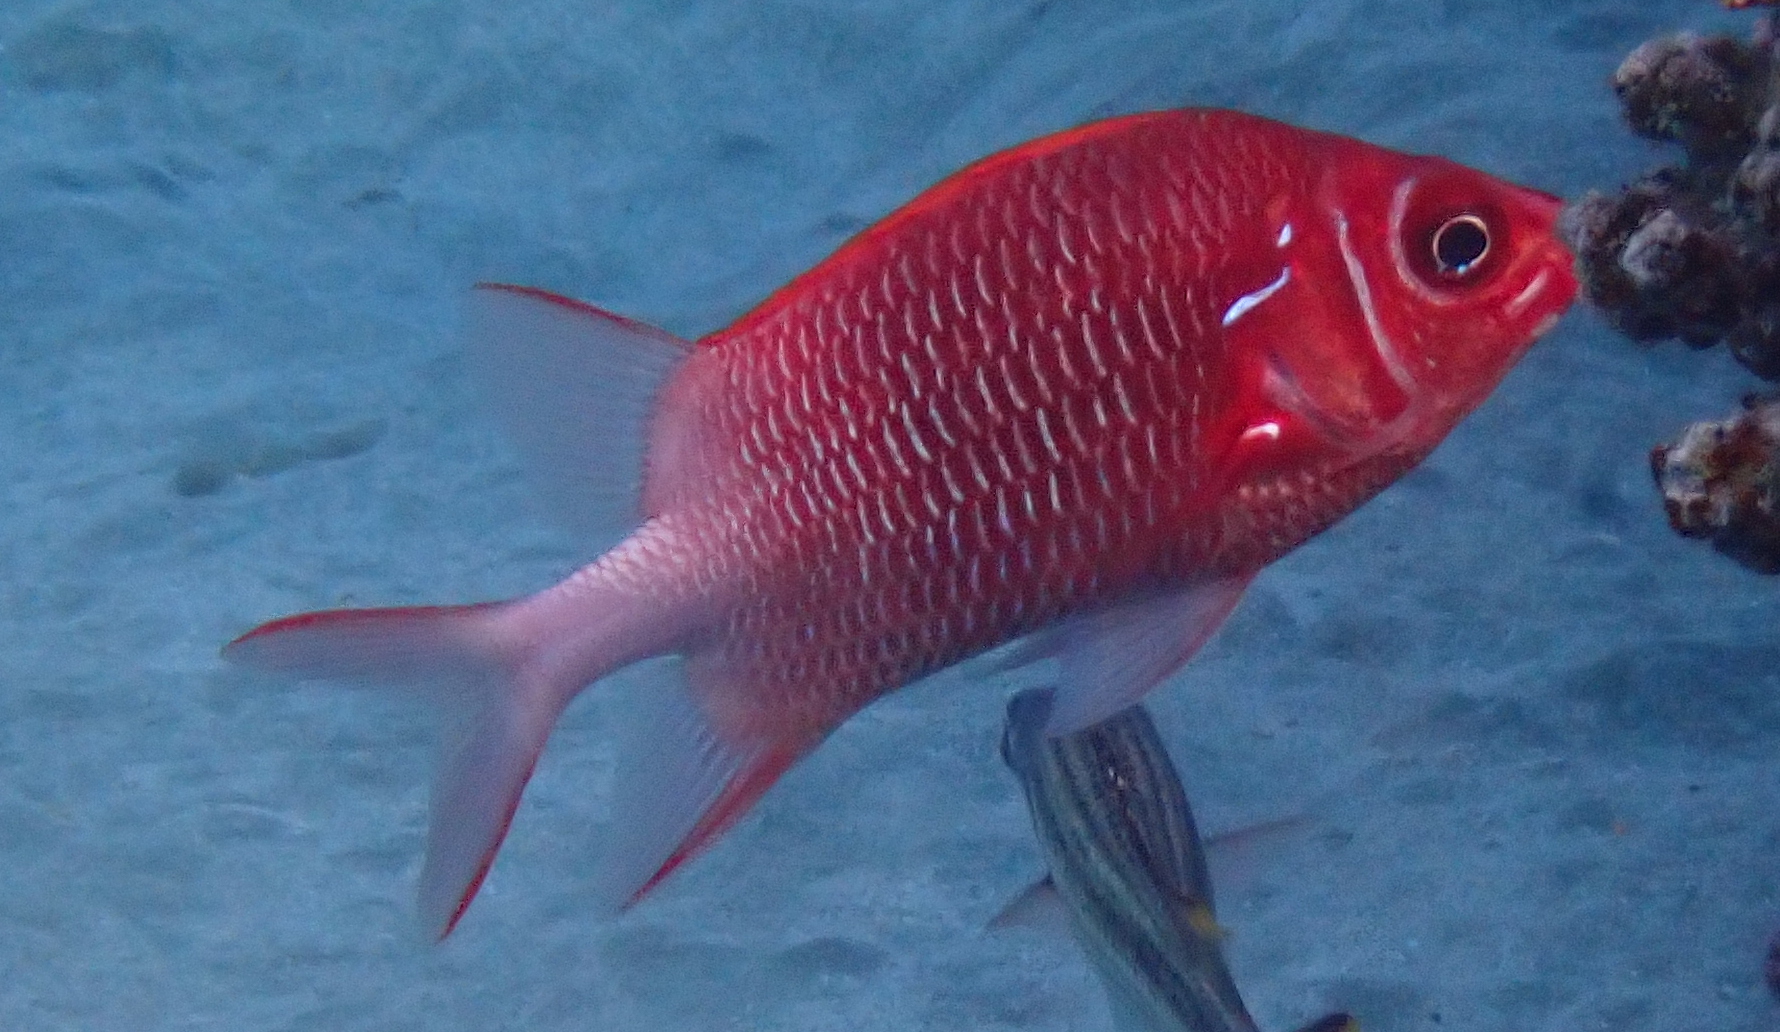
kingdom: Animalia
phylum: Chordata
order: Beryciformes
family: Holocentridae
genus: Sargocentron
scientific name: Sargocentron caudimaculatum
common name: Fanfin soldier
